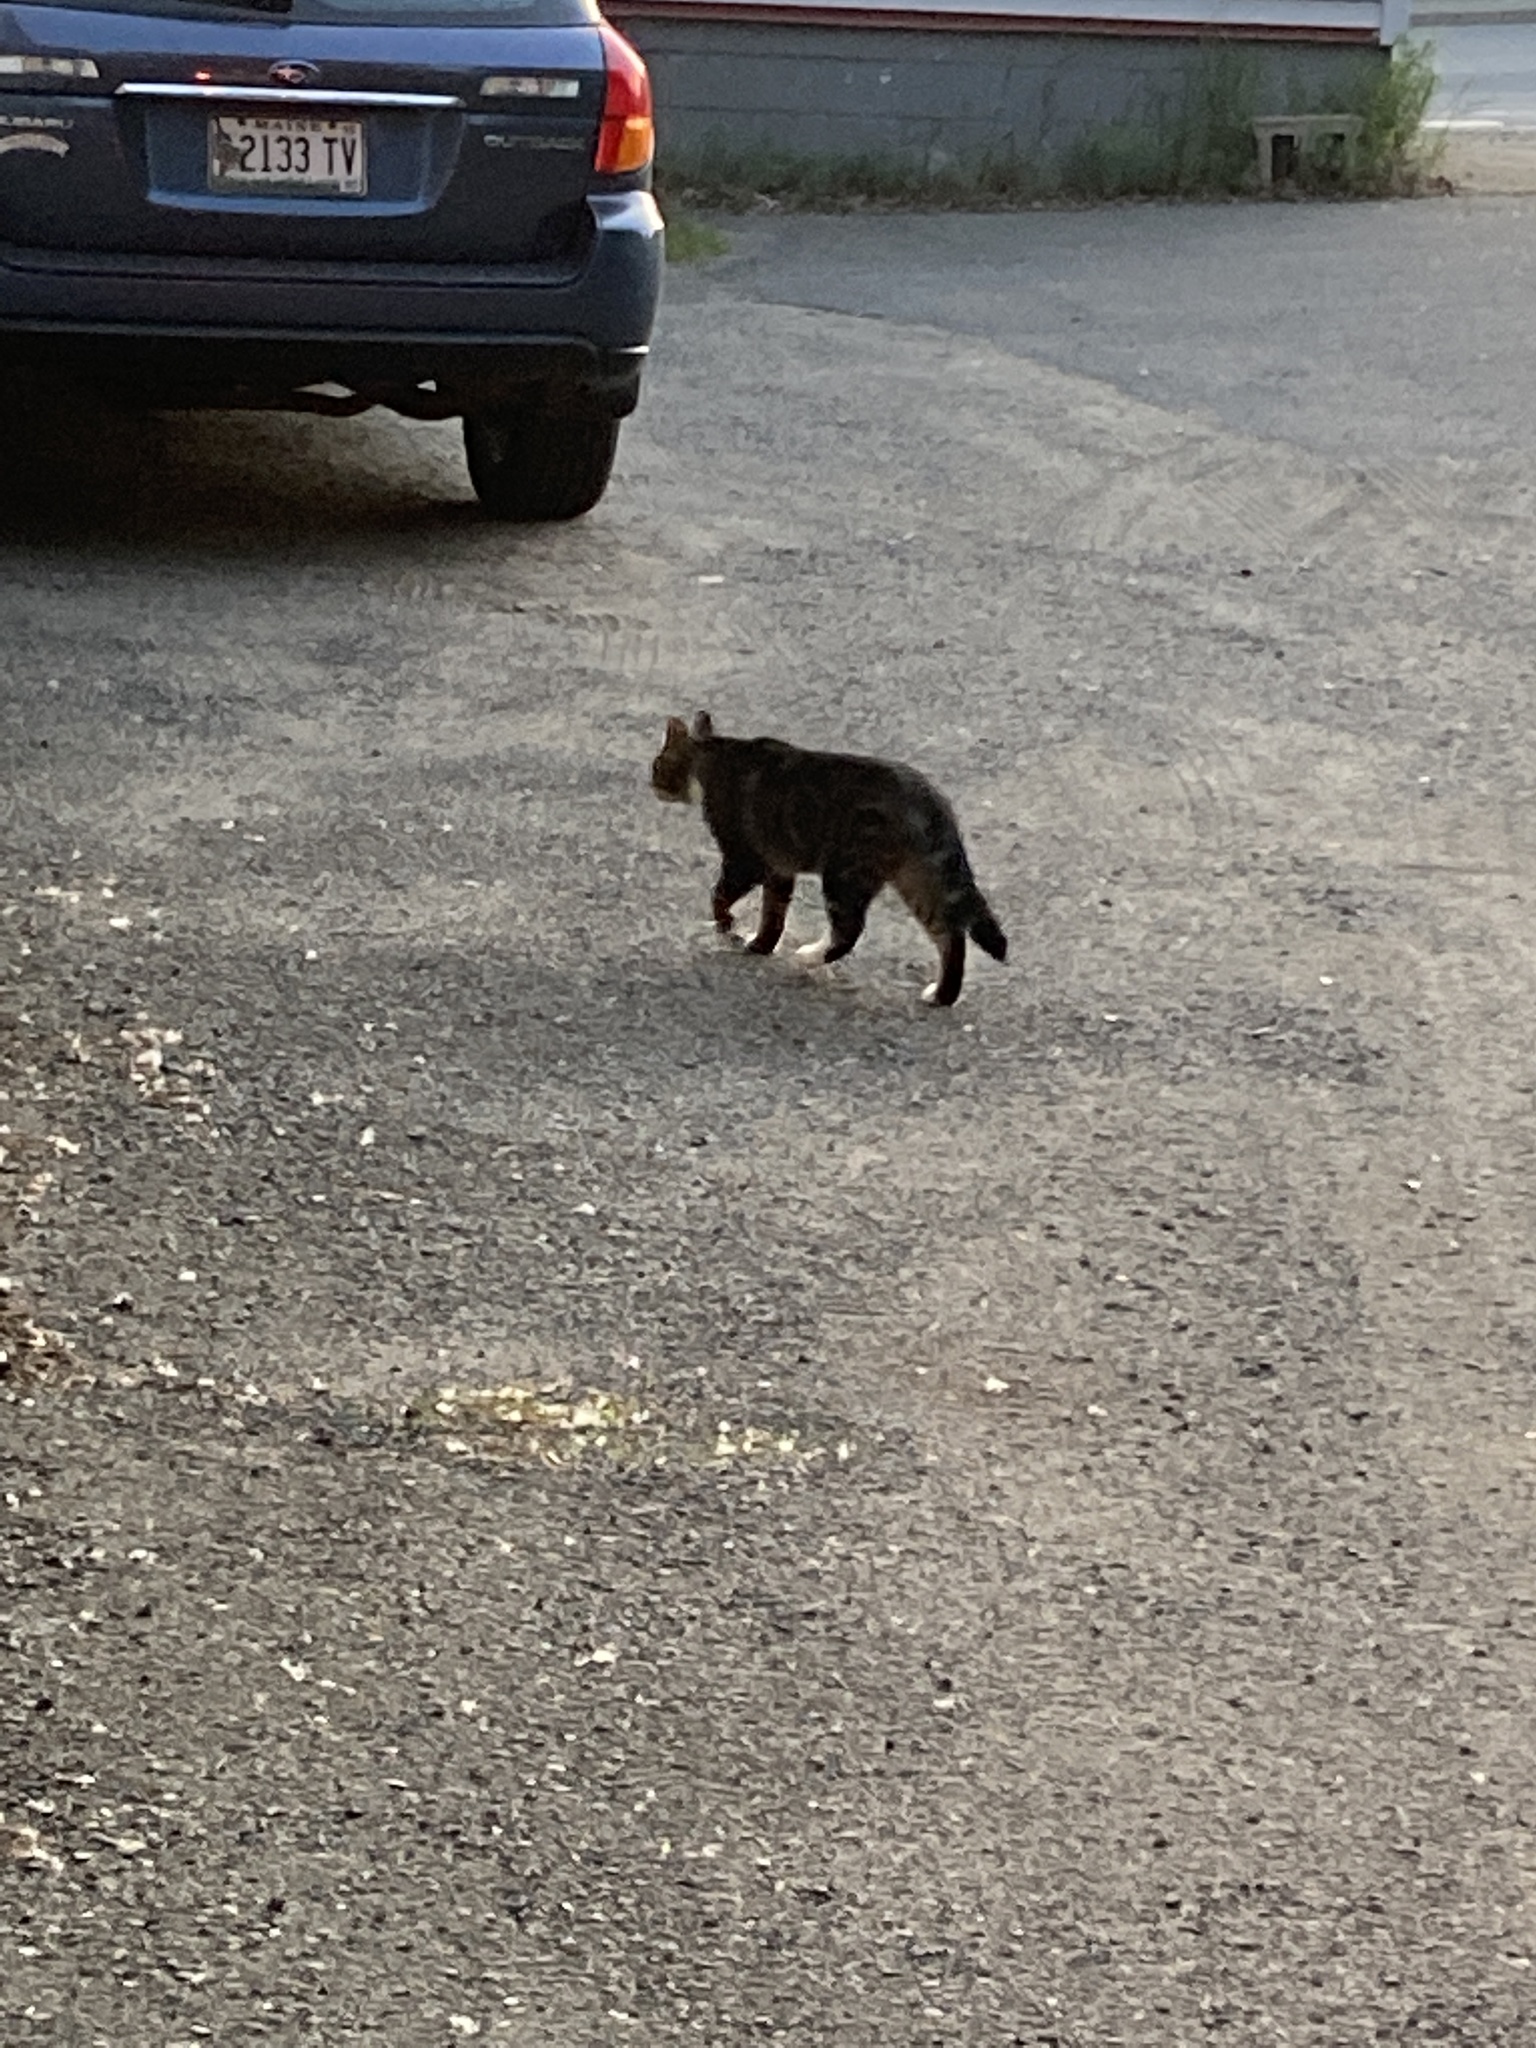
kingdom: Animalia
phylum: Chordata
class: Mammalia
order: Carnivora
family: Felidae
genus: Felis
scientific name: Felis catus
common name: Domestic cat
